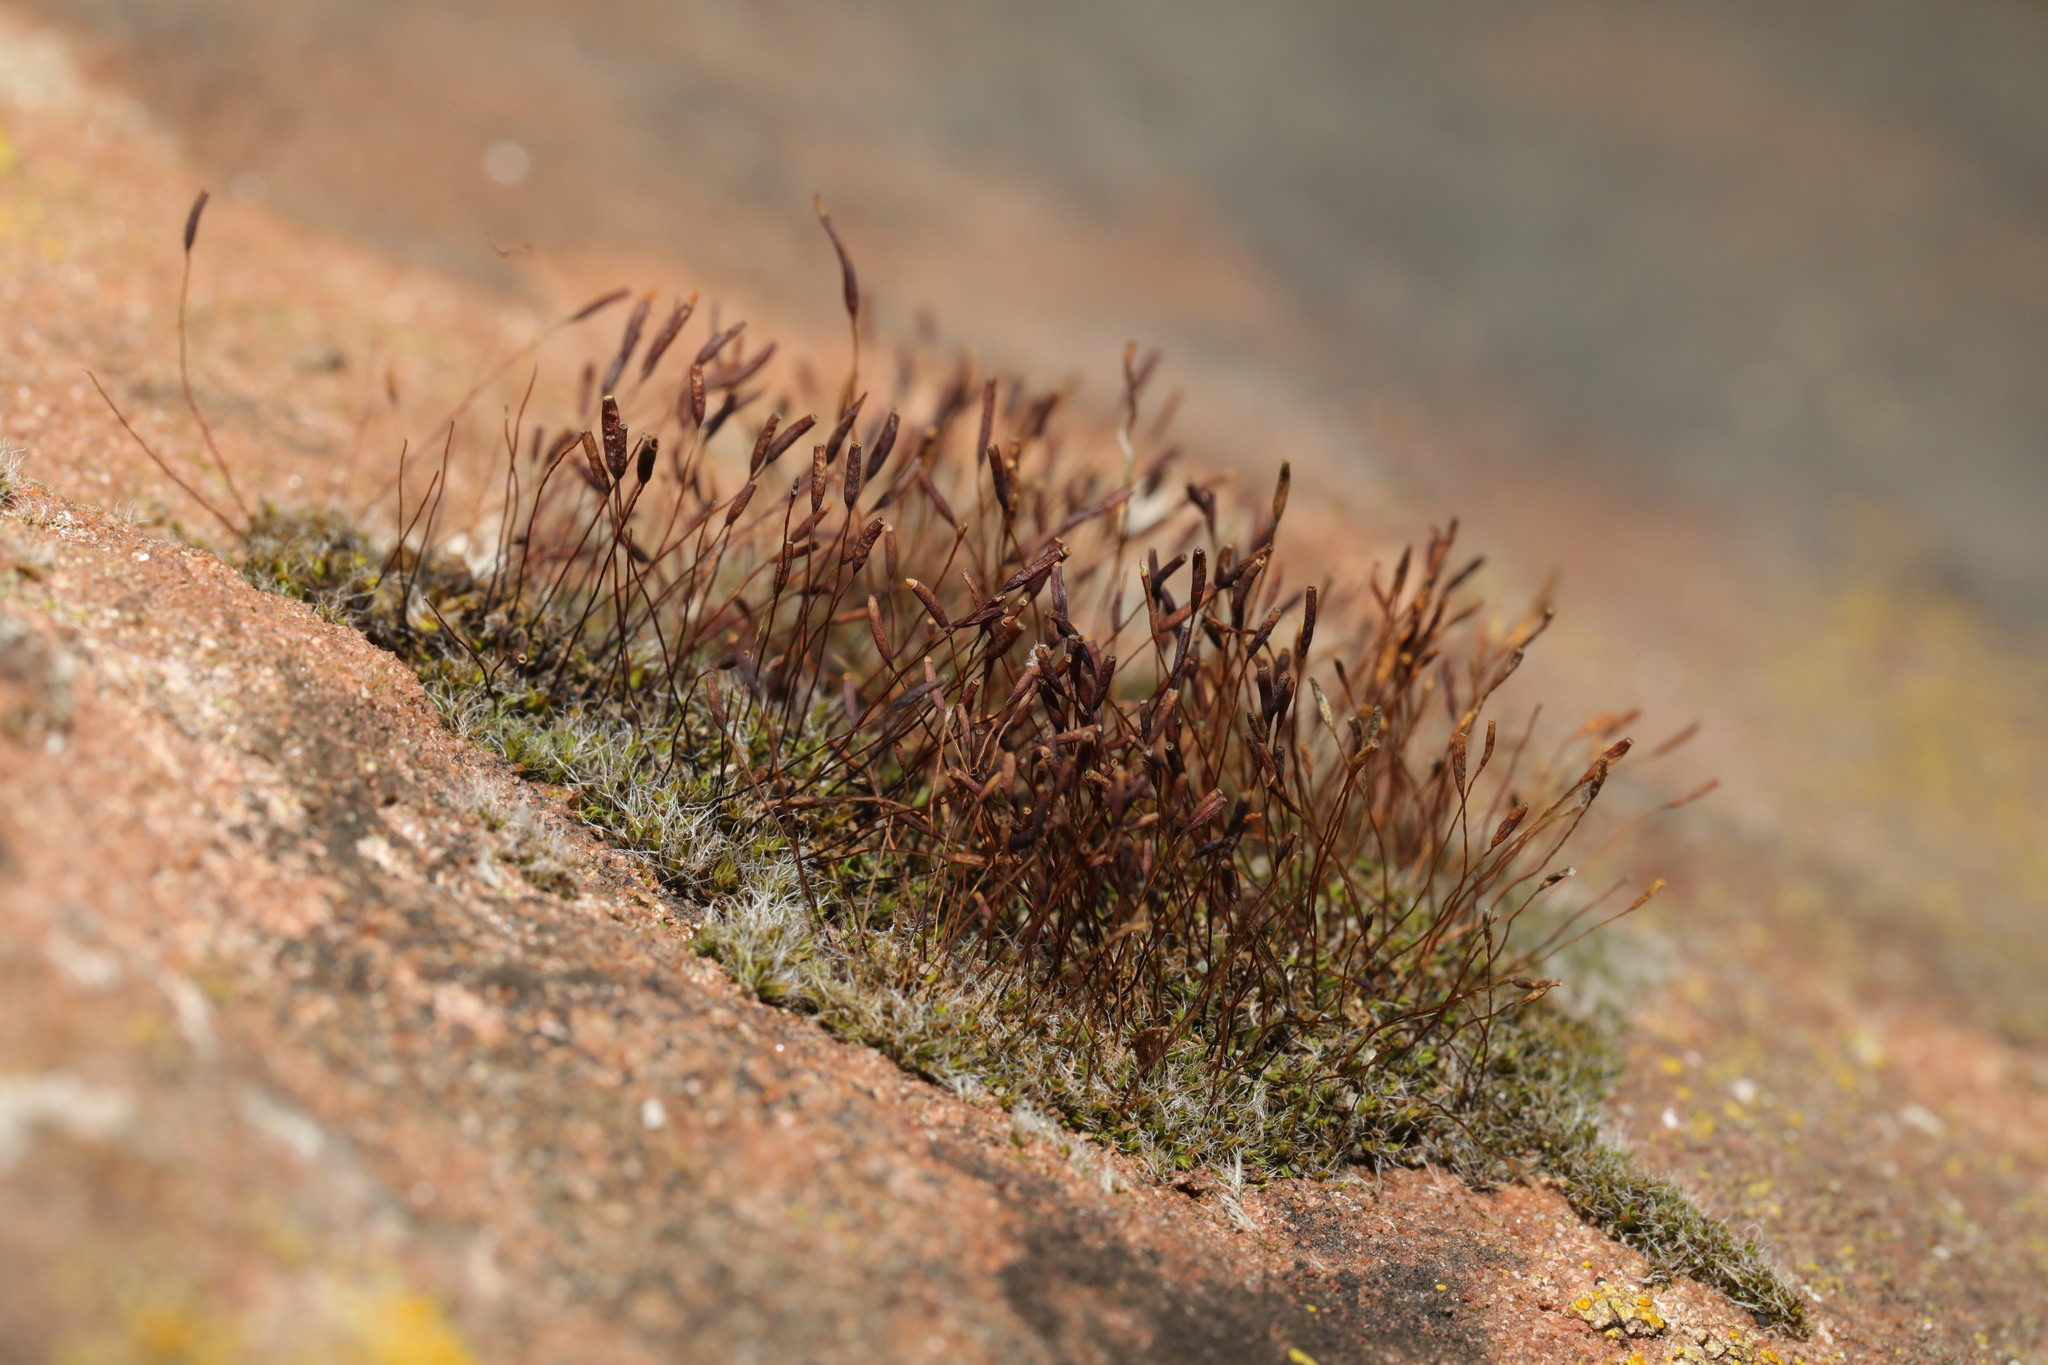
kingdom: Plantae
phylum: Bryophyta
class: Bryopsida
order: Pottiales
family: Pottiaceae
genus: Tortula
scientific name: Tortula muralis
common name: Wall screw-moss
